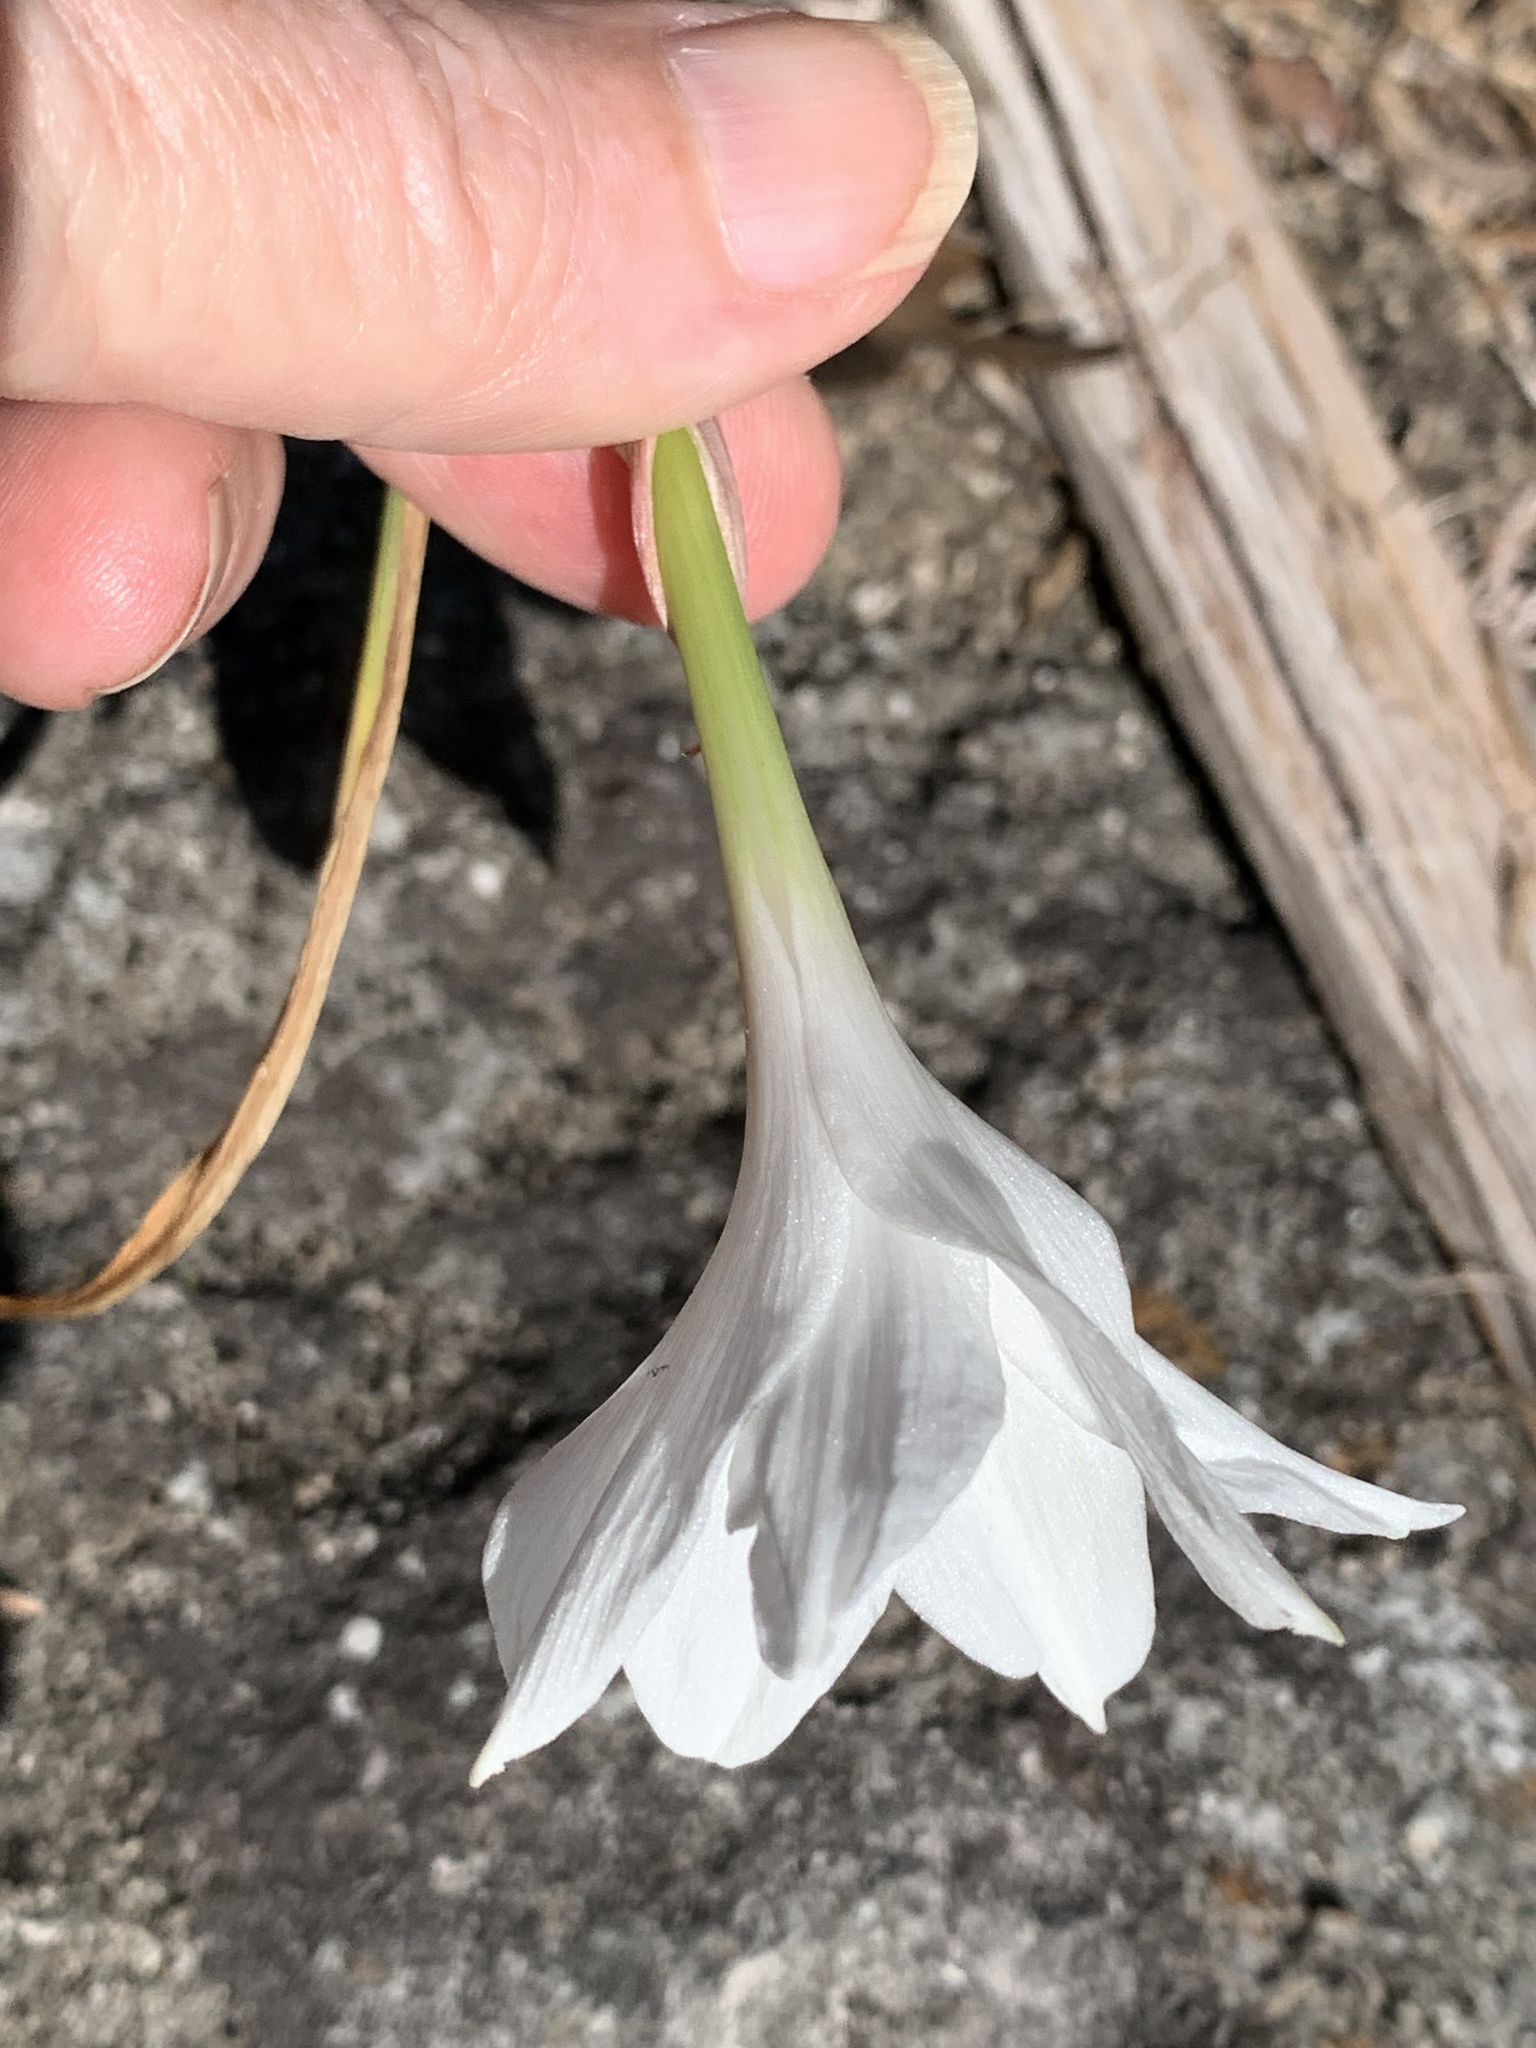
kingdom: Plantae
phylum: Tracheophyta
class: Liliopsida
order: Asparagales
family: Amaryllidaceae
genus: Zephyranthes
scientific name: Zephyranthes drummondii
